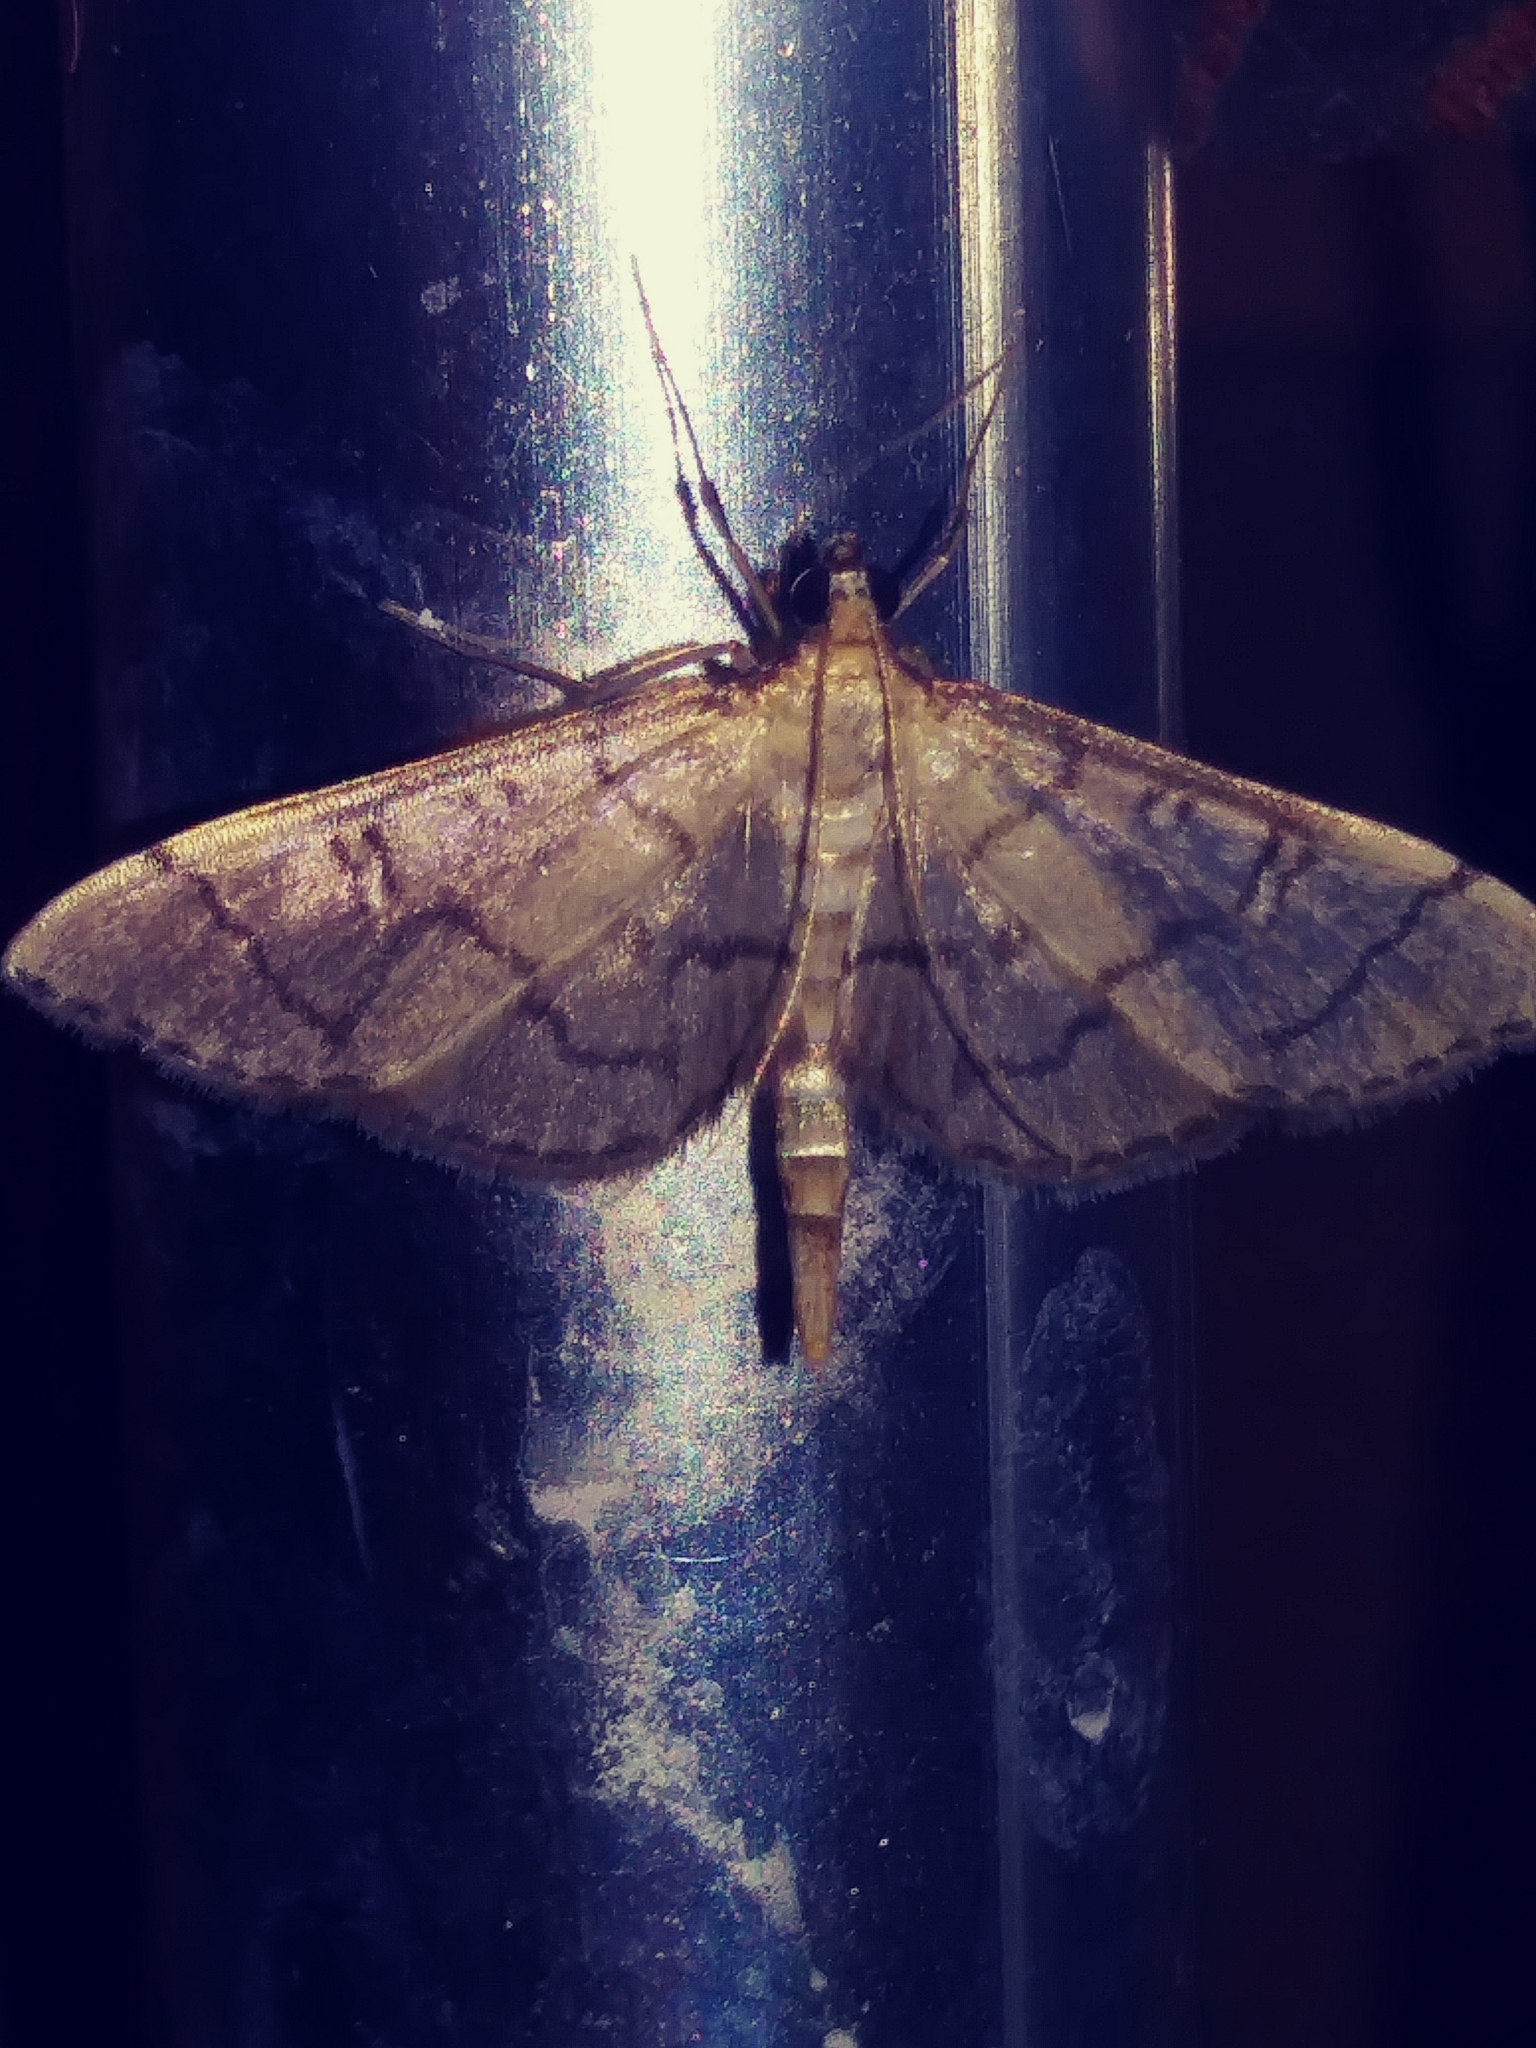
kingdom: Animalia
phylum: Arthropoda
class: Insecta
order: Lepidoptera
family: Crambidae
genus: Lamprosema
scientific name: Lamprosema Blepharomastix ranalis
